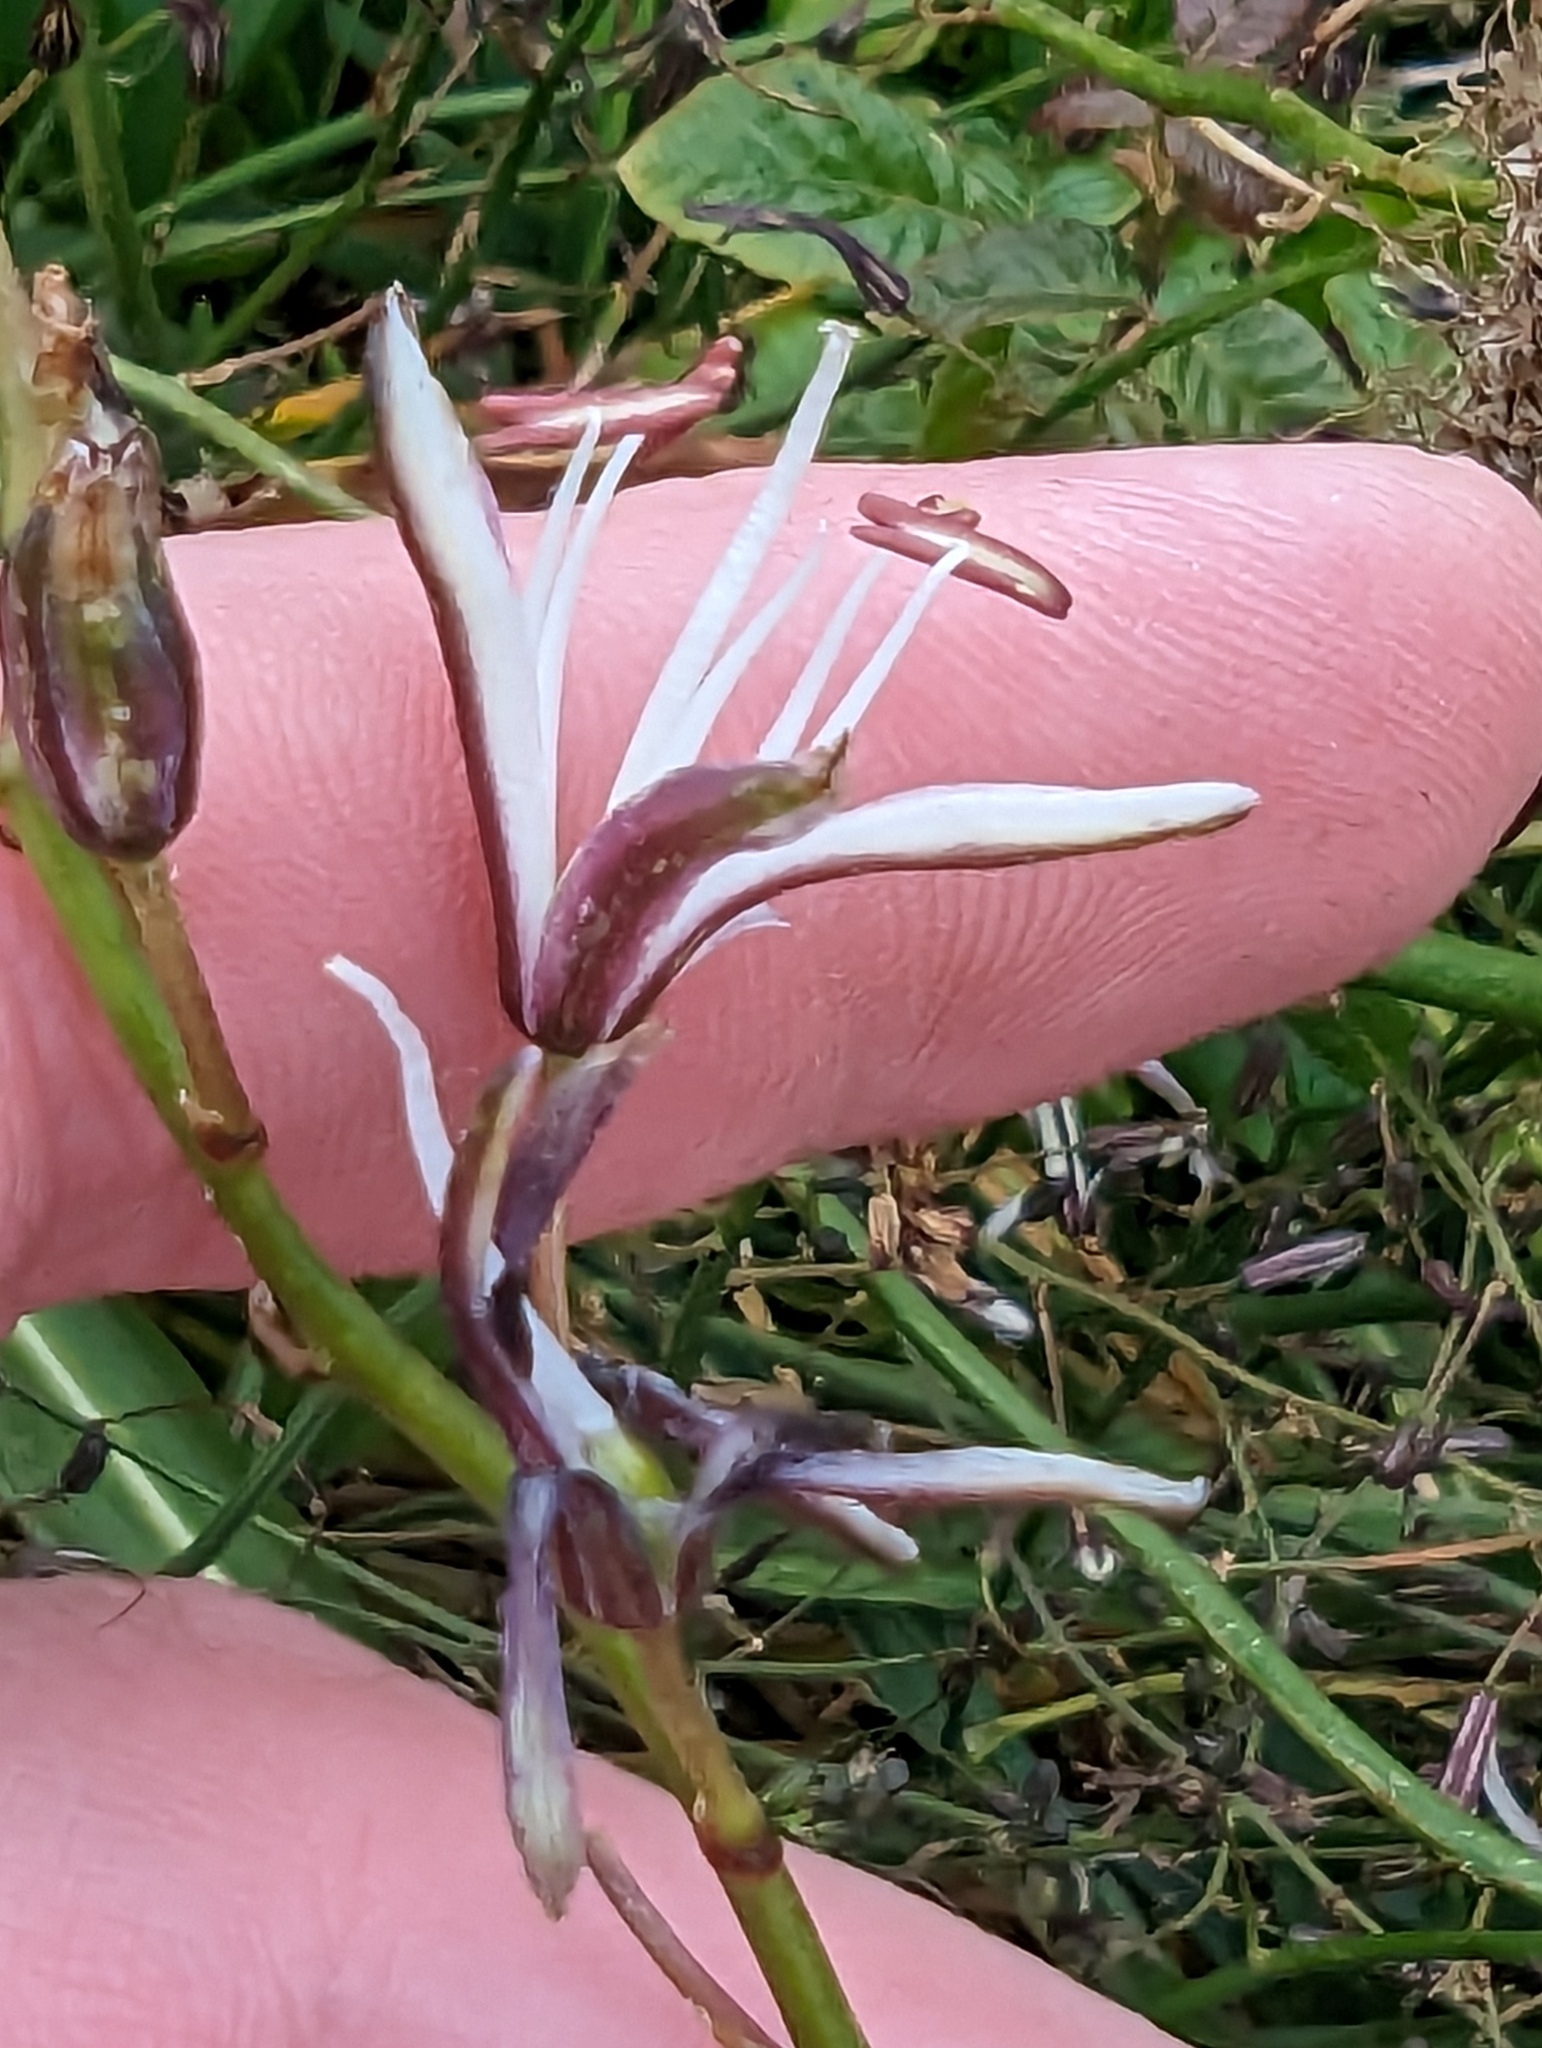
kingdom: Plantae
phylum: Tracheophyta
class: Liliopsida
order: Asparagales
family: Asparagaceae
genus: Chlorogalum
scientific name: Chlorogalum pomeridianum
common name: Amole
